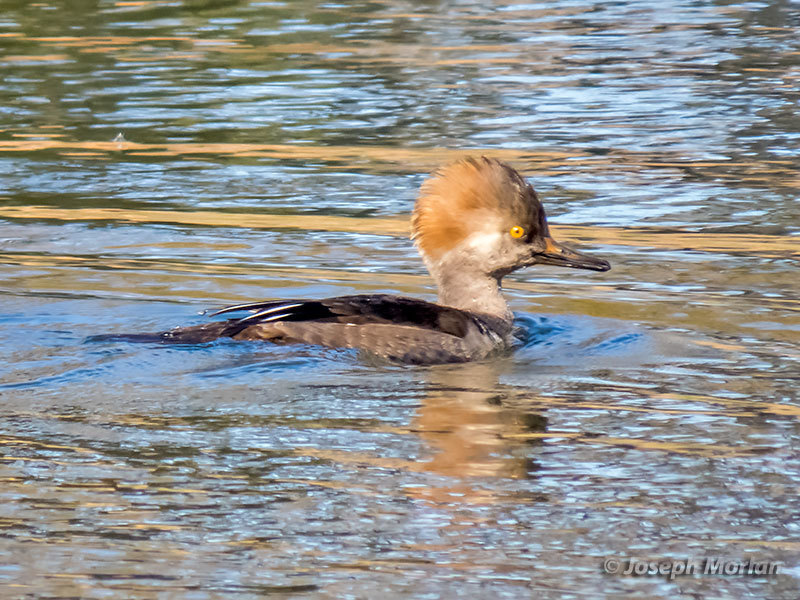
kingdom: Animalia
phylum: Chordata
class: Aves
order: Anseriformes
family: Anatidae
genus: Lophodytes
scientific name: Lophodytes cucullatus
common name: Hooded merganser
